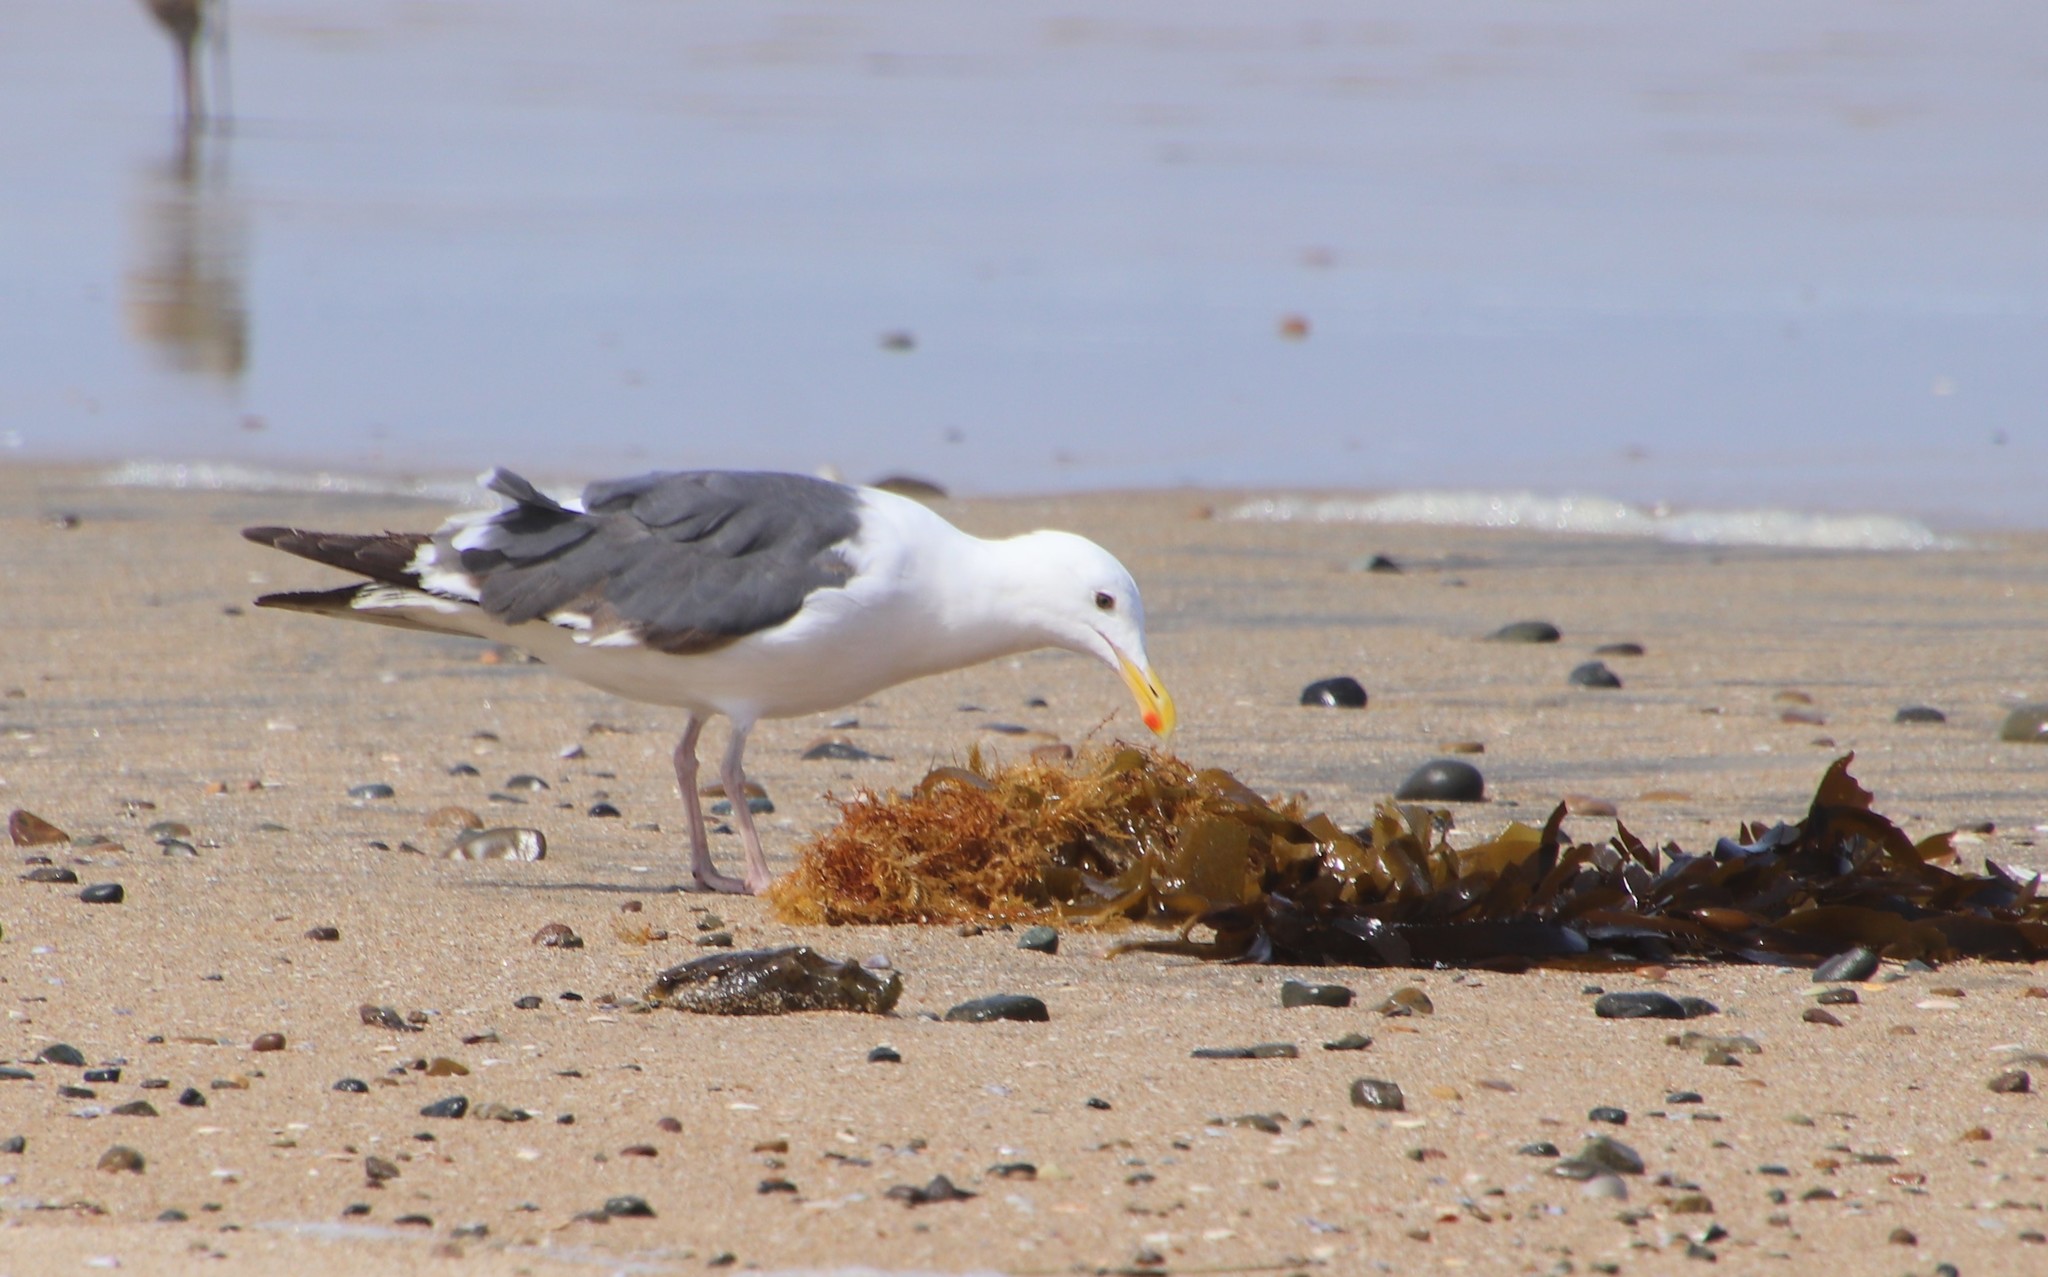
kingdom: Animalia
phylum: Chordata
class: Aves
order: Charadriiformes
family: Laridae
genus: Larus
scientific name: Larus occidentalis
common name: Western gull
